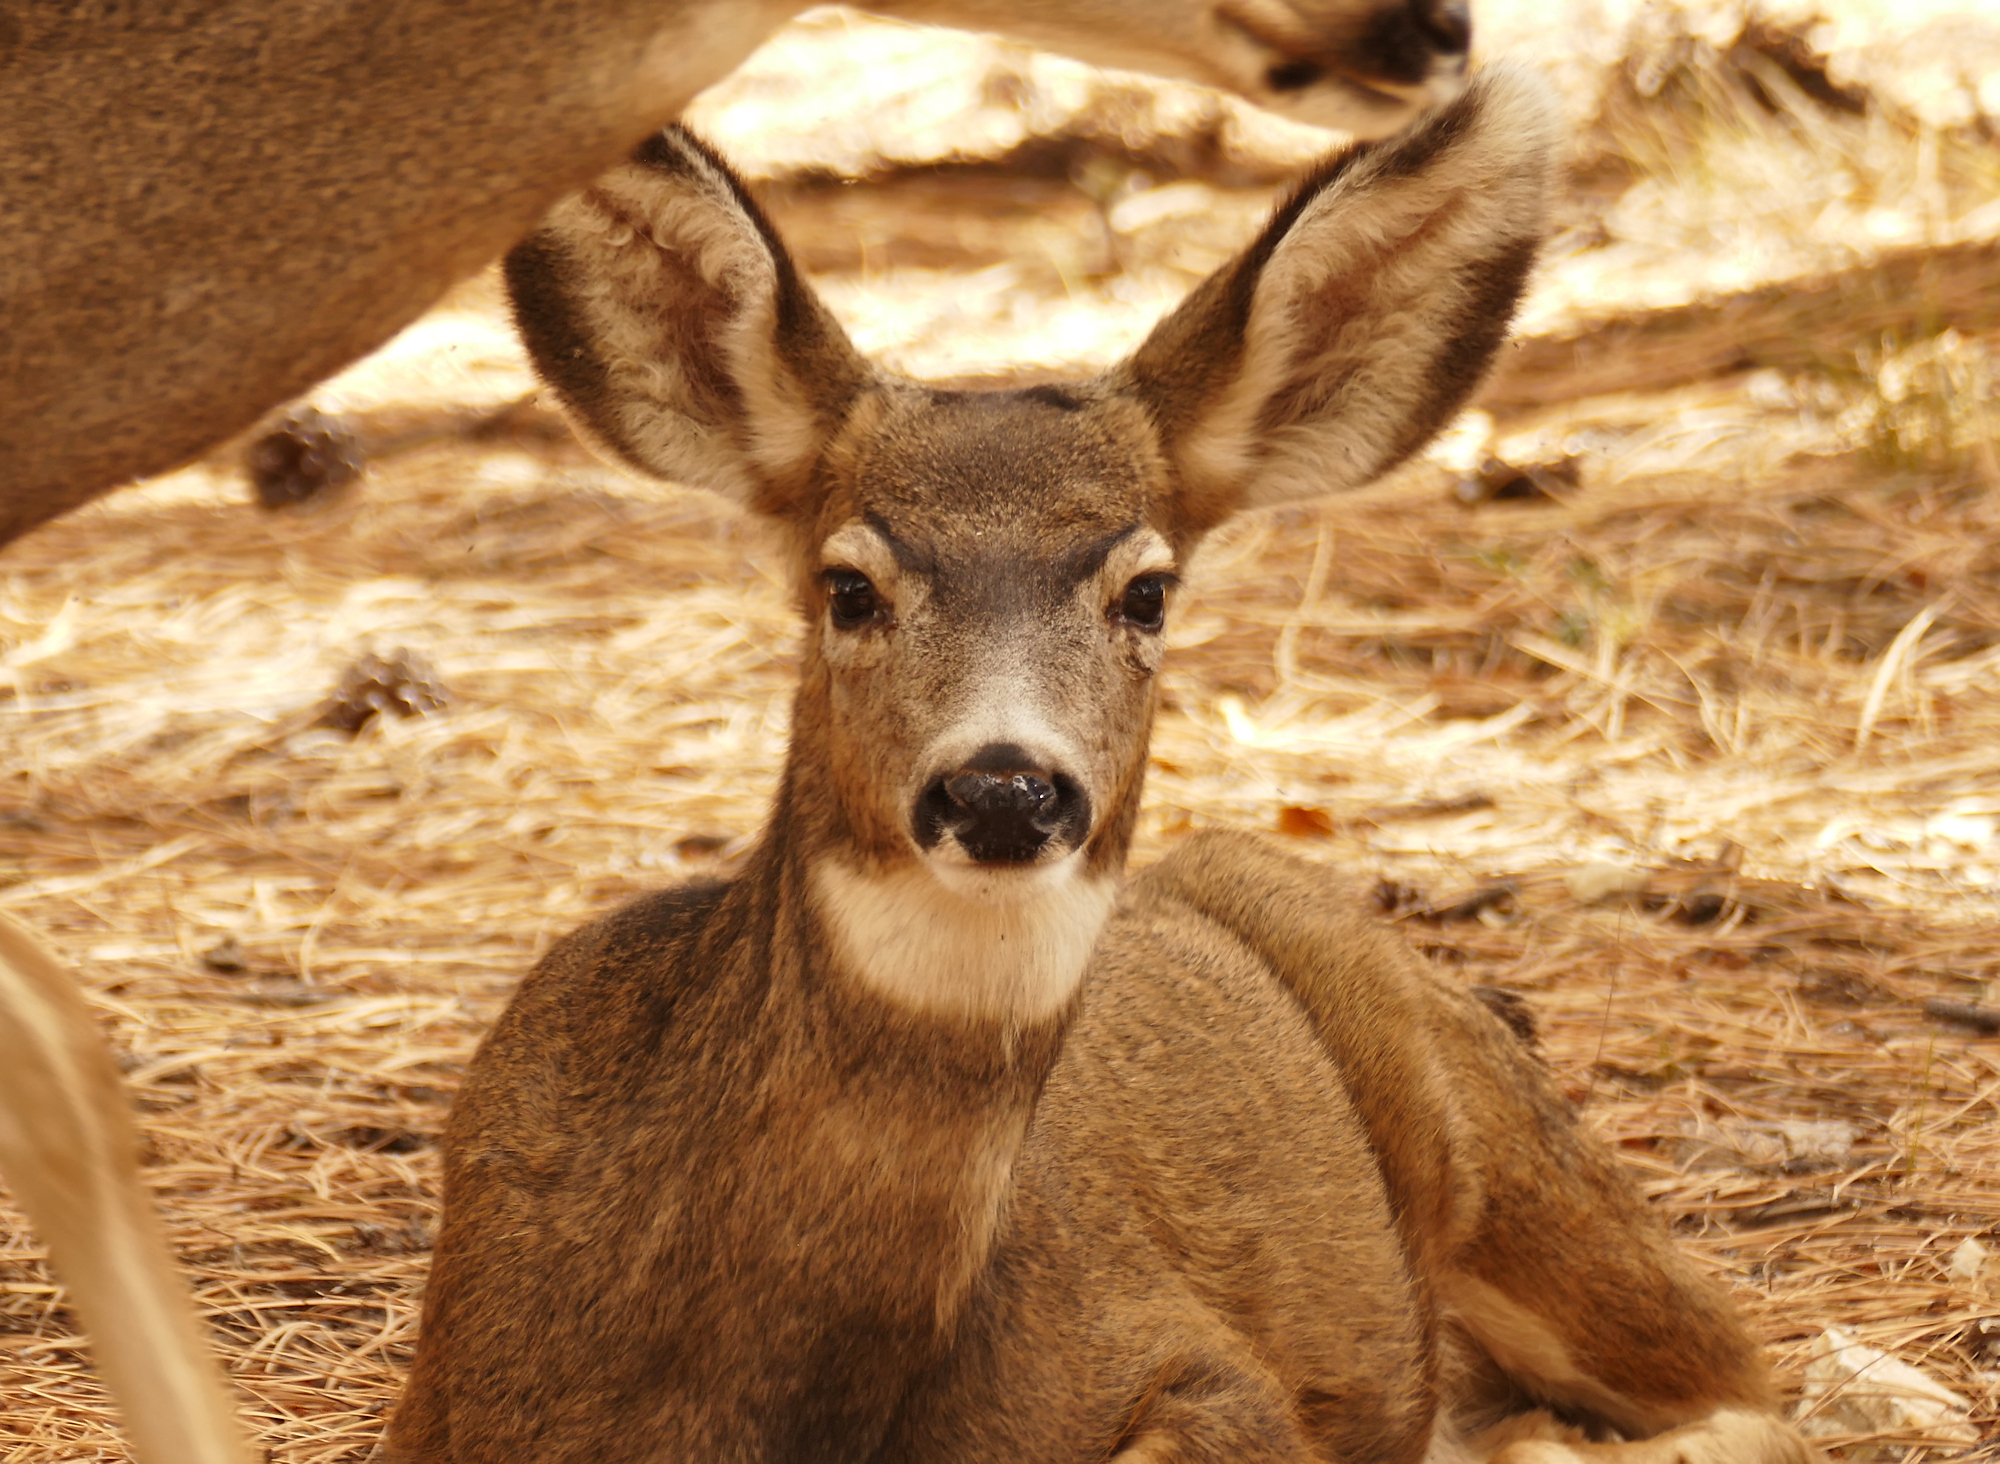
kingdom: Animalia
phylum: Chordata
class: Mammalia
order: Artiodactyla
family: Cervidae
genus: Odocoileus
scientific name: Odocoileus hemionus
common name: Mule deer
